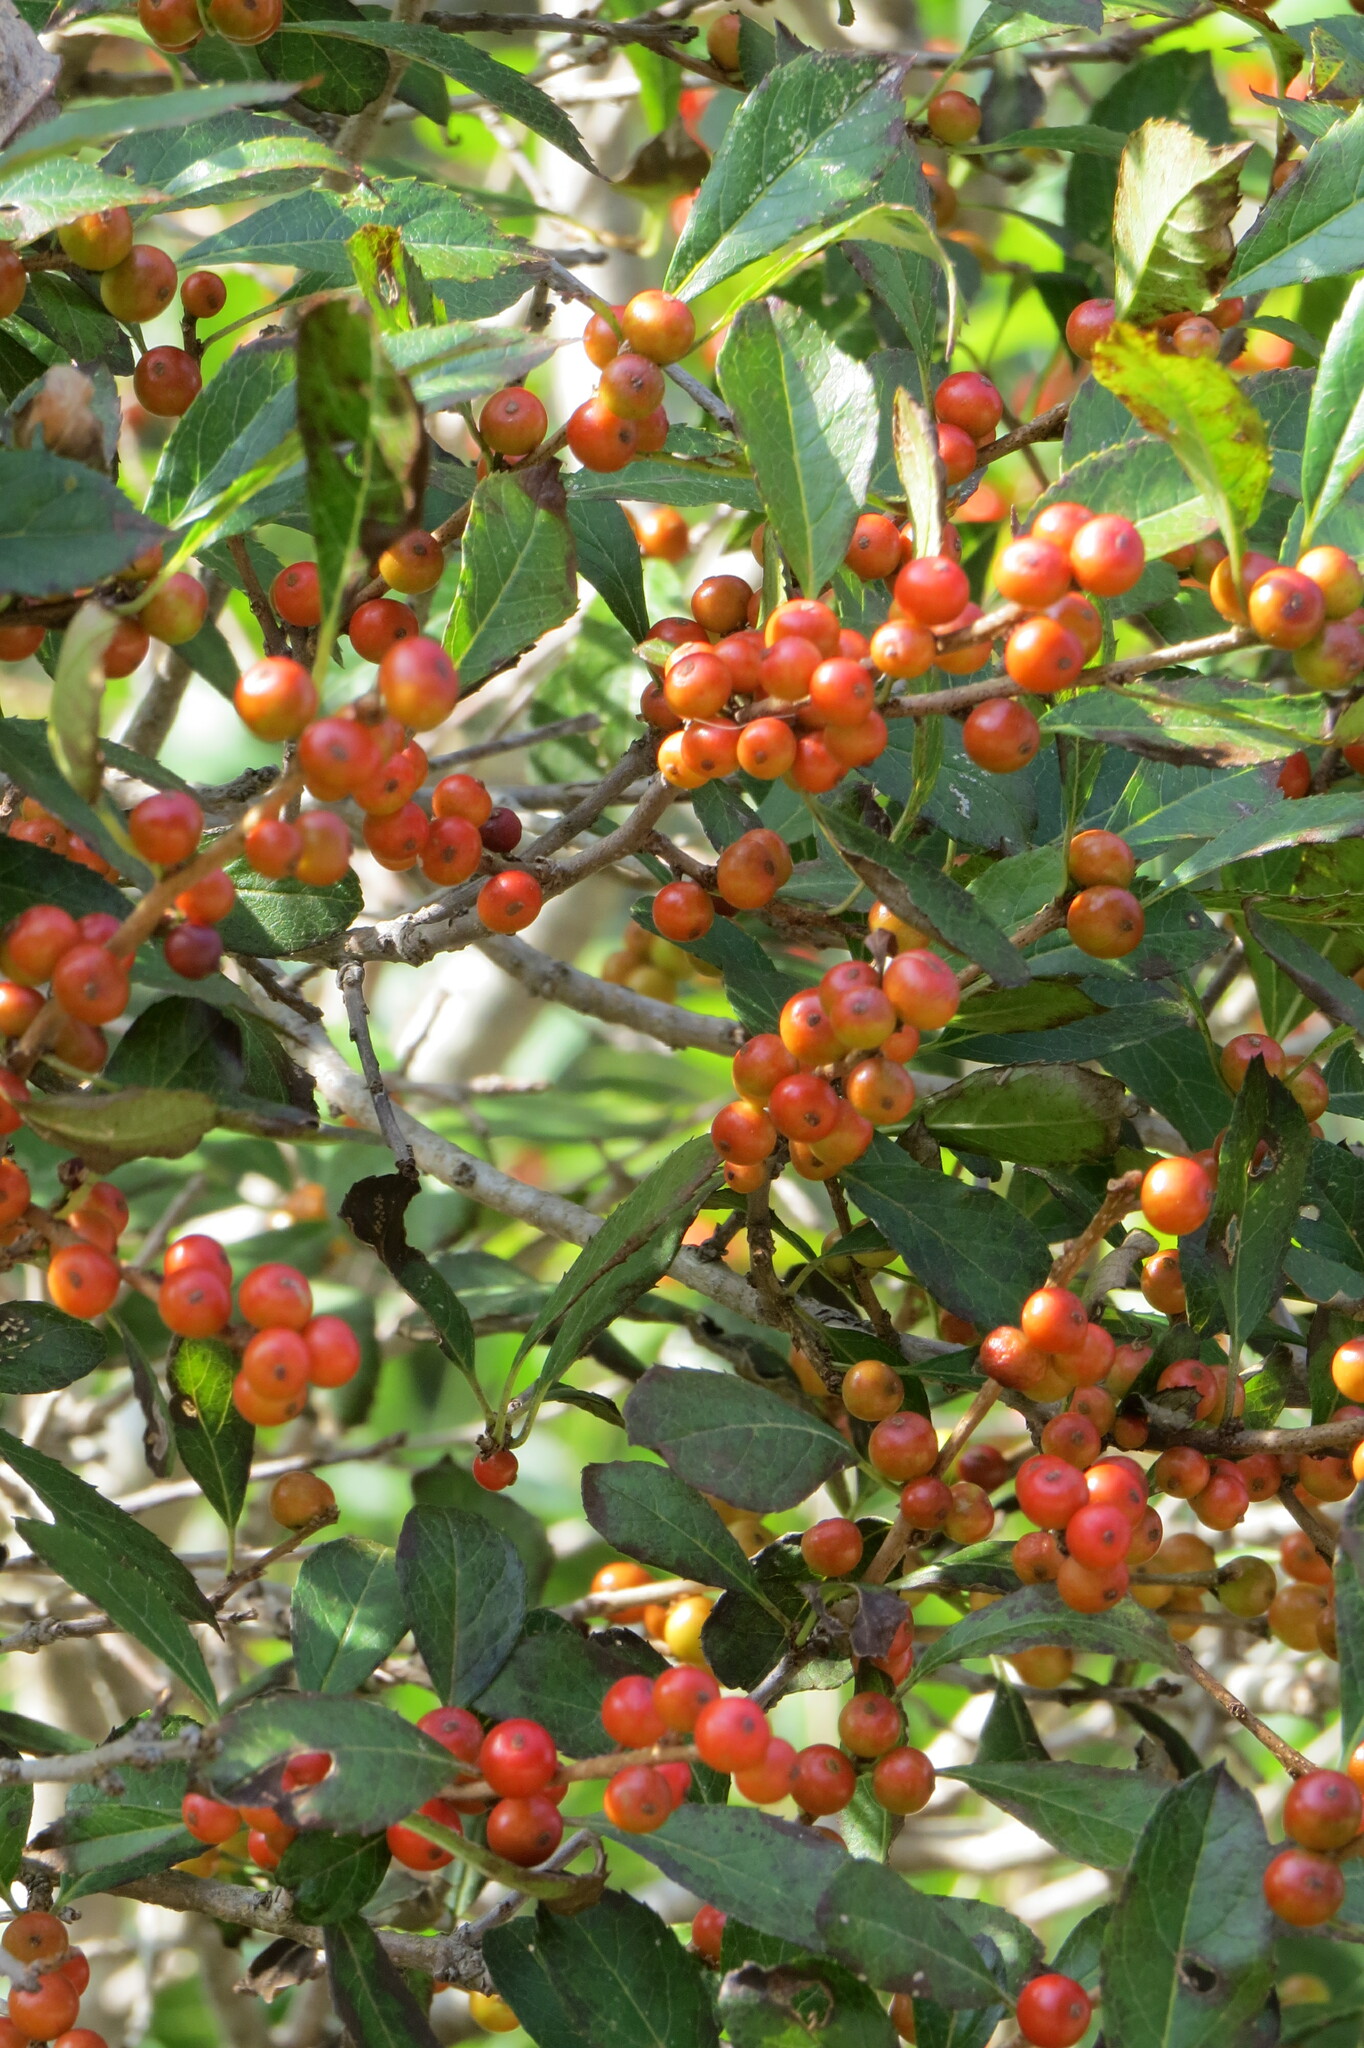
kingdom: Plantae
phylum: Tracheophyta
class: Magnoliopsida
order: Aquifoliales
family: Aquifoliaceae
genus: Ilex
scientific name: Ilex verticillata
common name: Virginia winterberry
